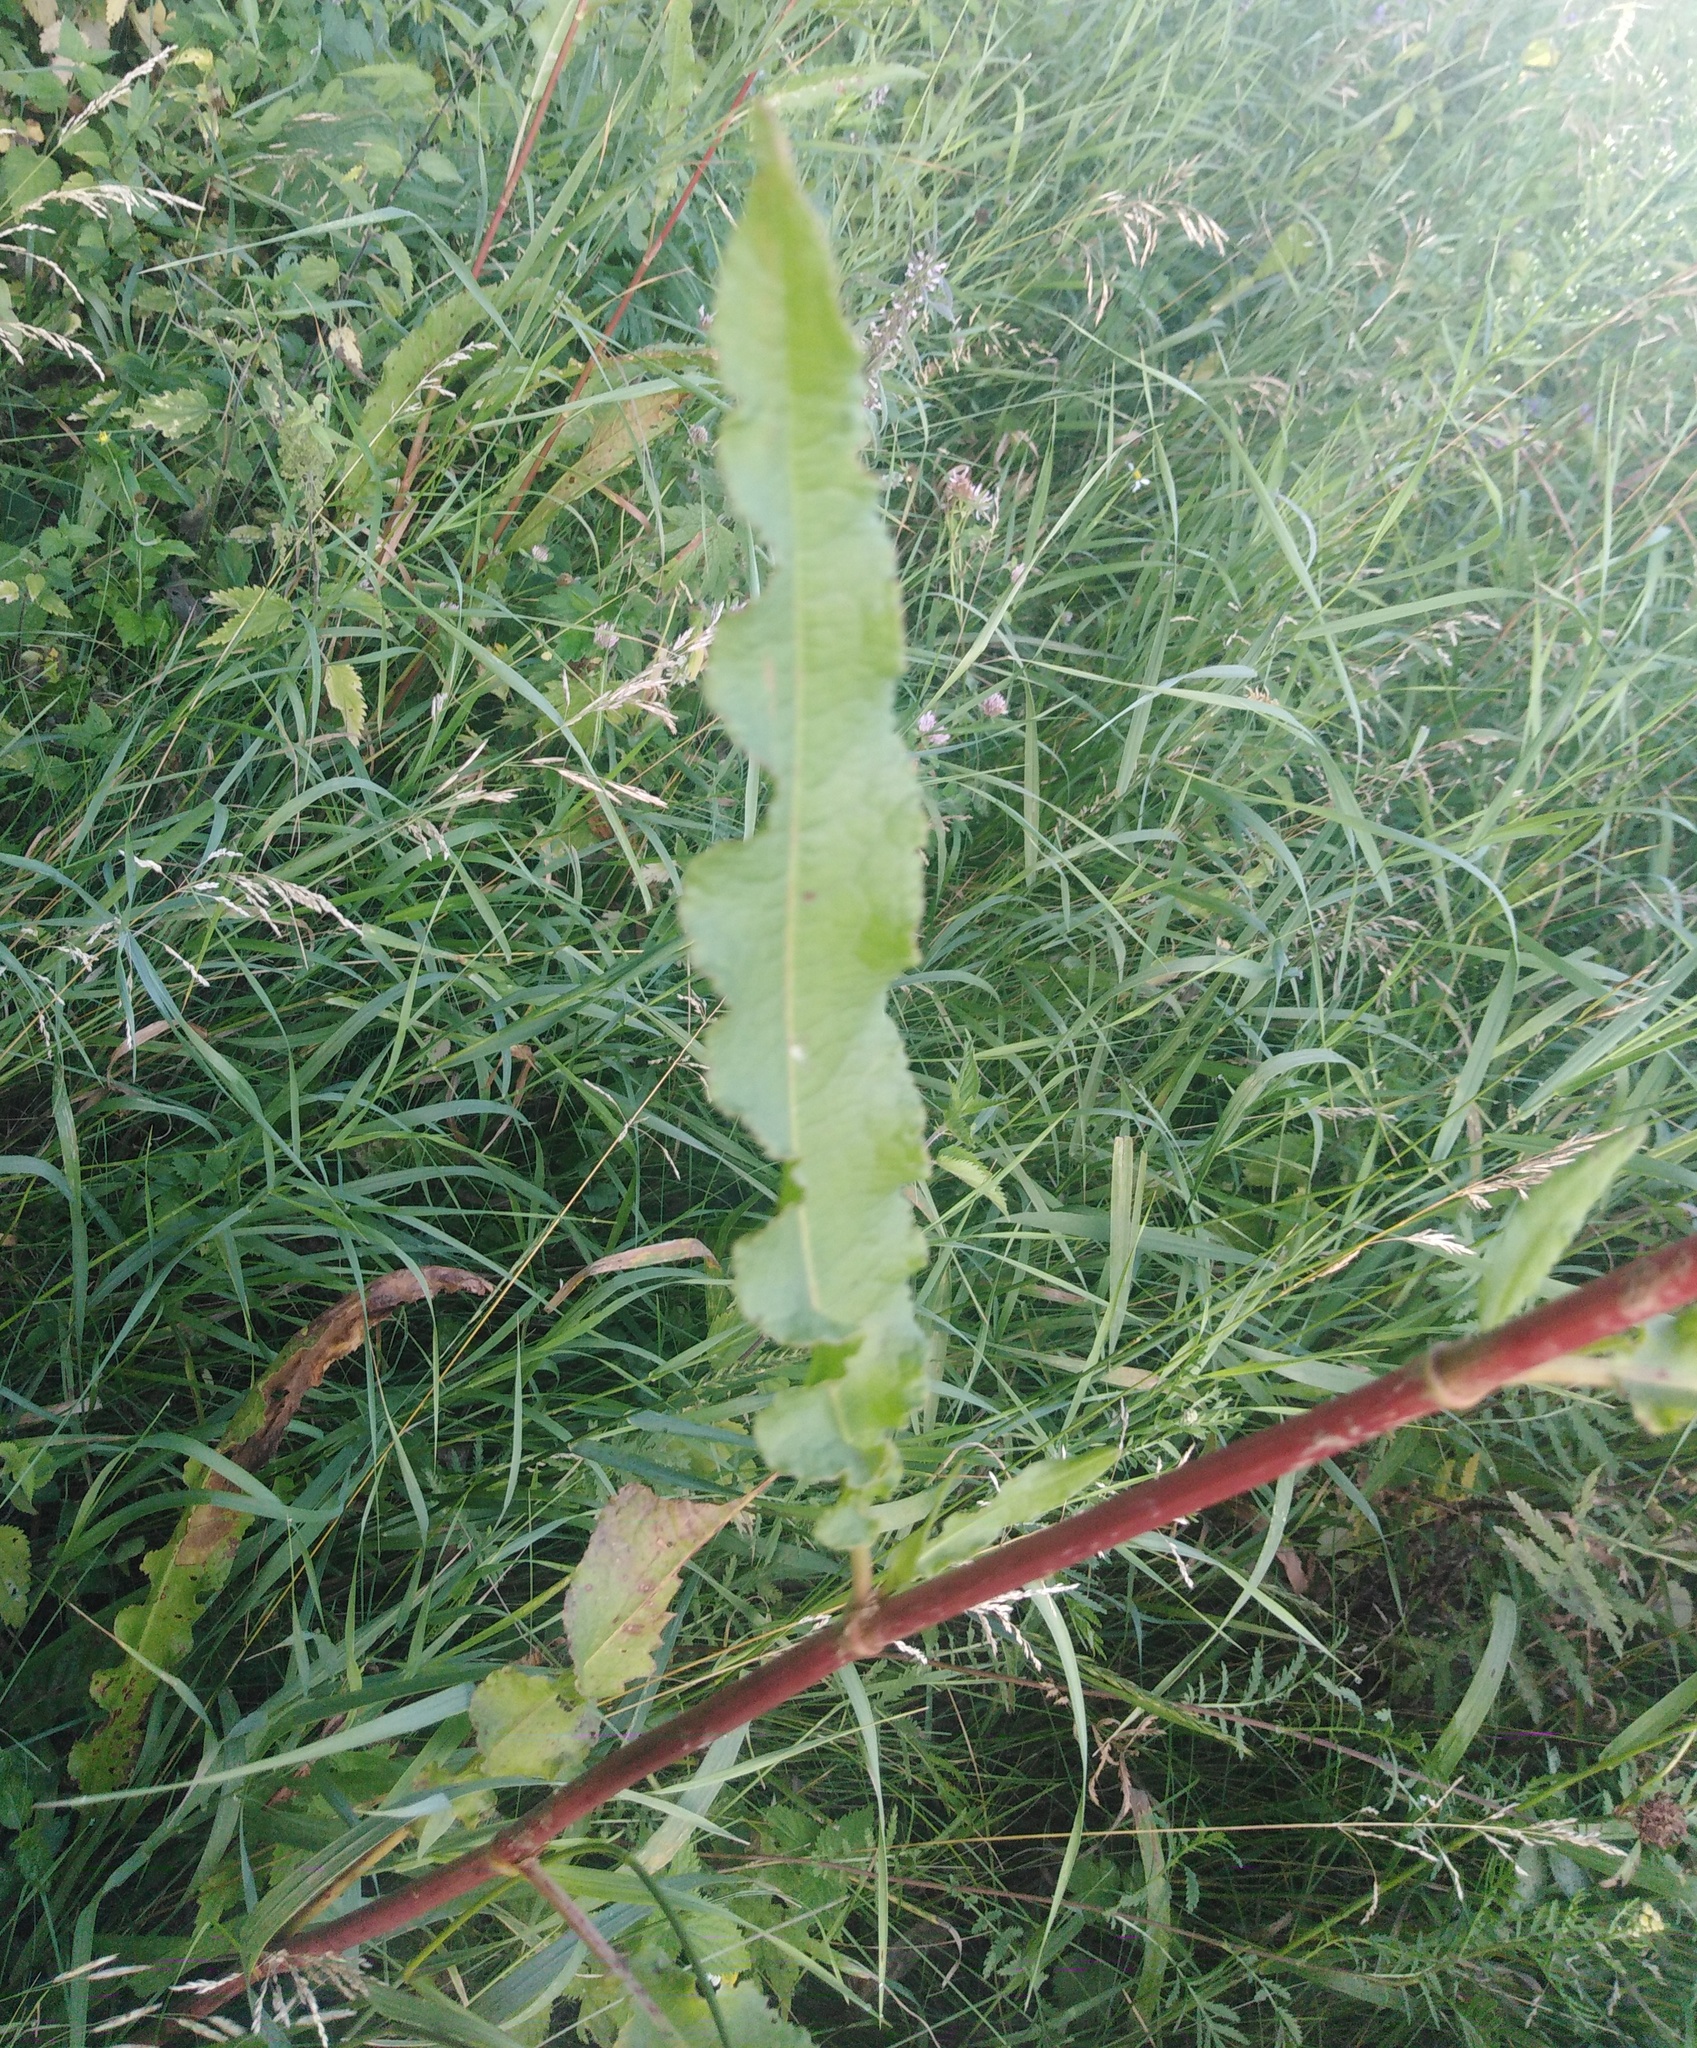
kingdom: Plantae
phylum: Tracheophyta
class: Magnoliopsida
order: Caryophyllales
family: Polygonaceae
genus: Rumex
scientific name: Rumex crispus
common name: Curled dock
